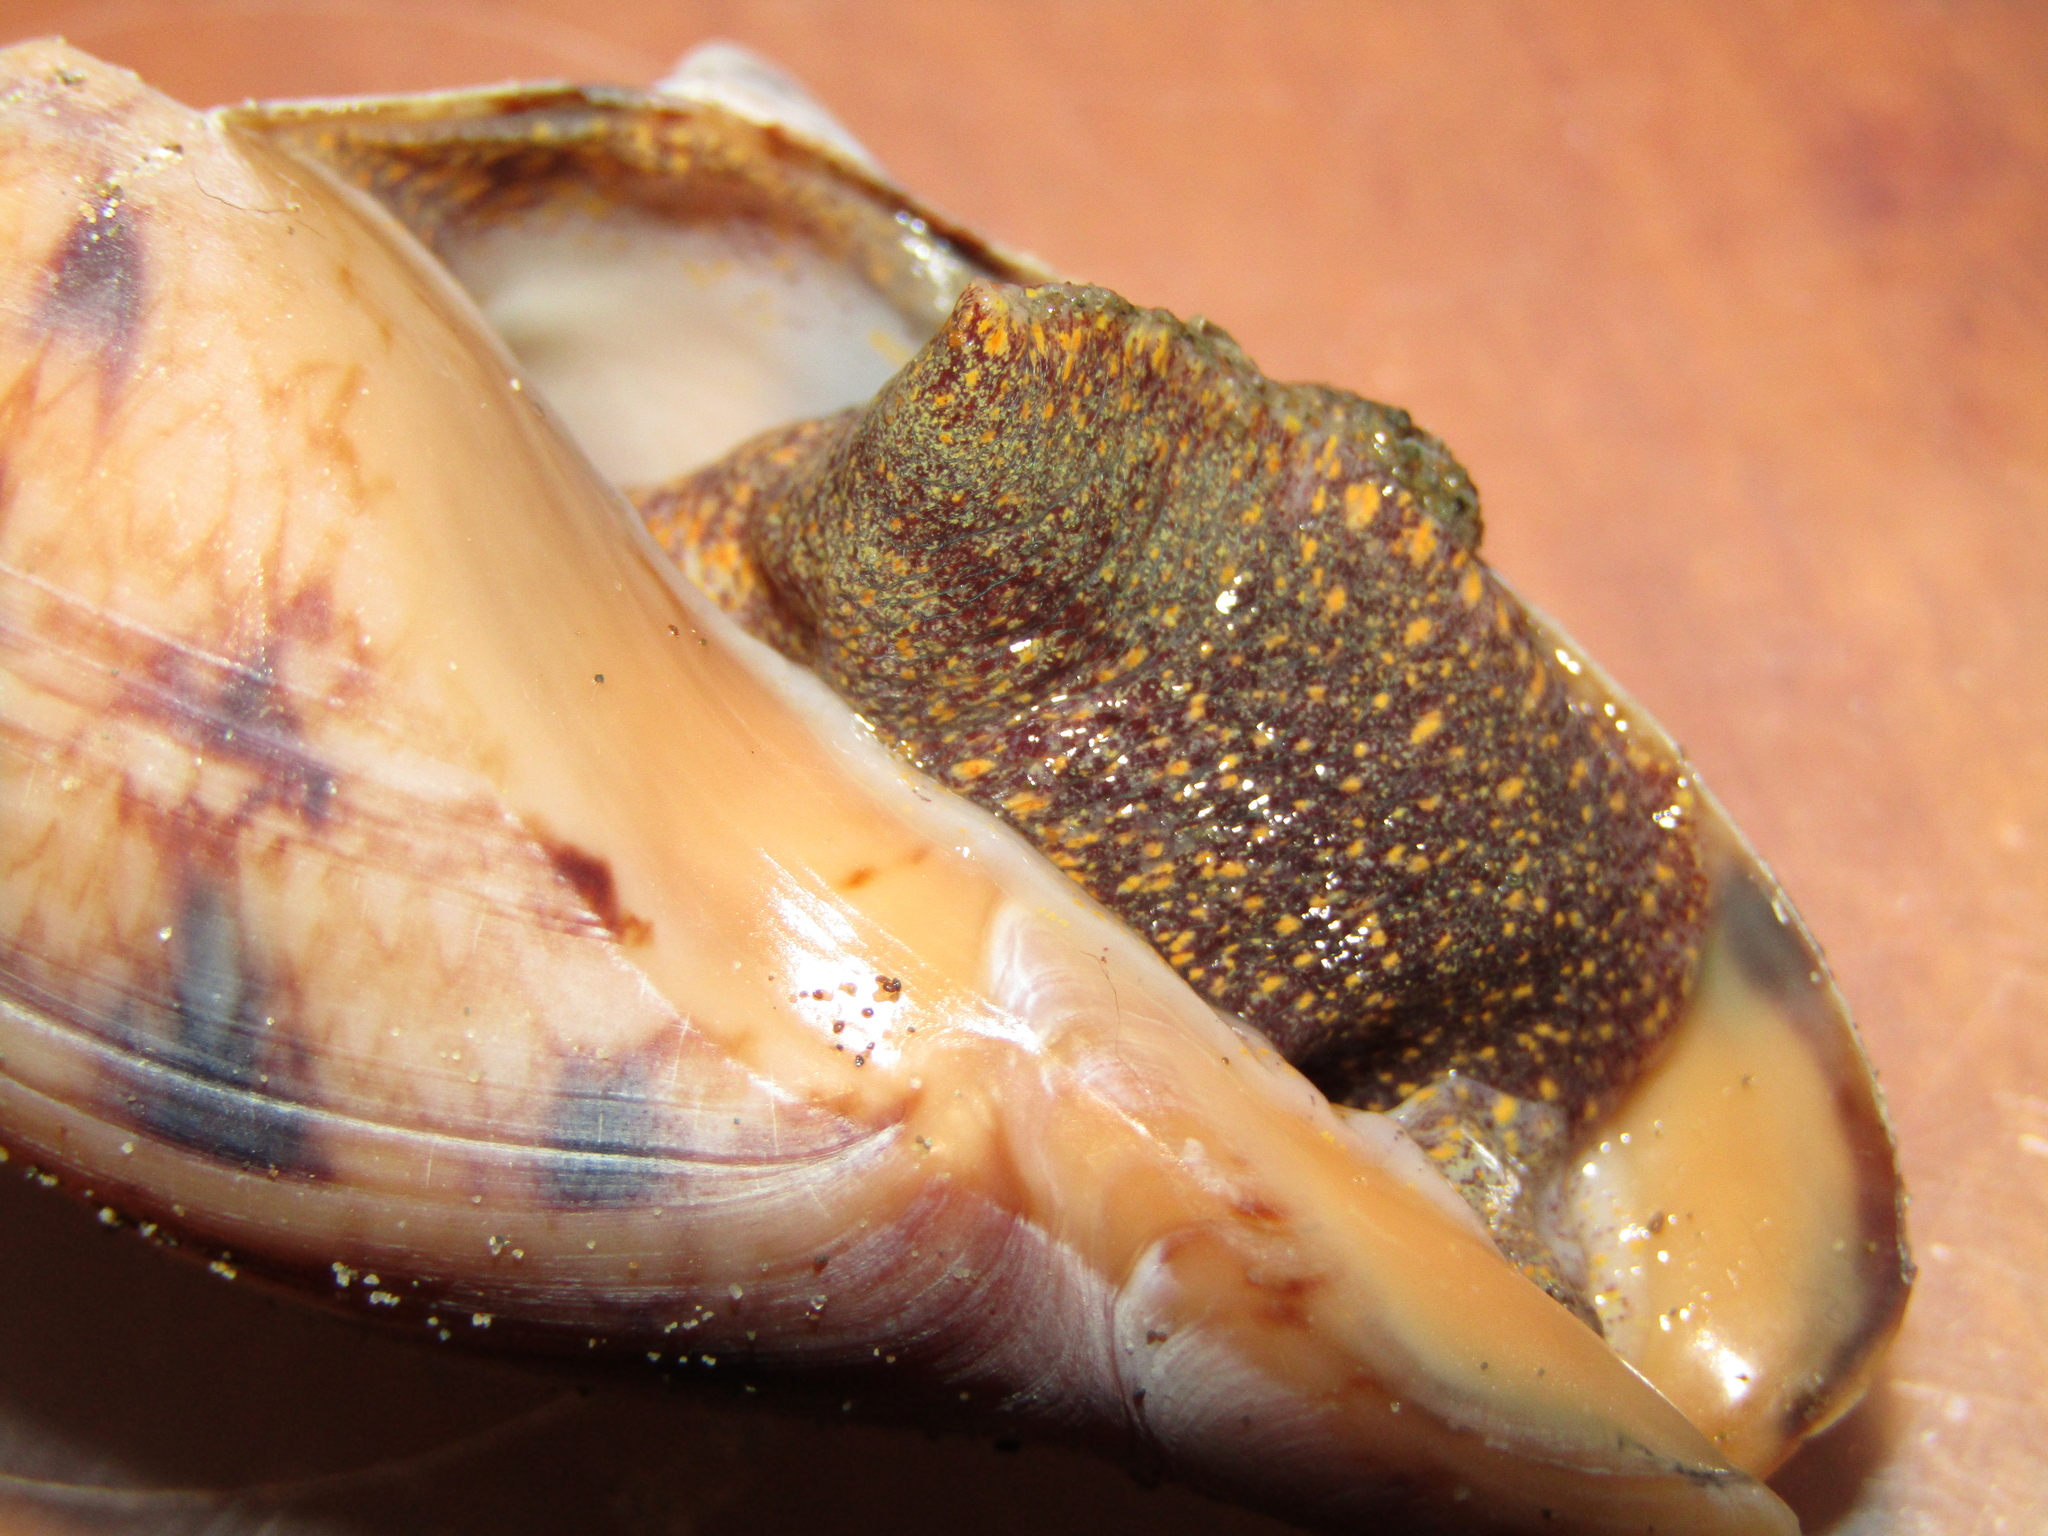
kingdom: Animalia
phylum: Mollusca
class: Gastropoda
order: Neogastropoda
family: Volutidae
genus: Alcithoe
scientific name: Alcithoe arabica
